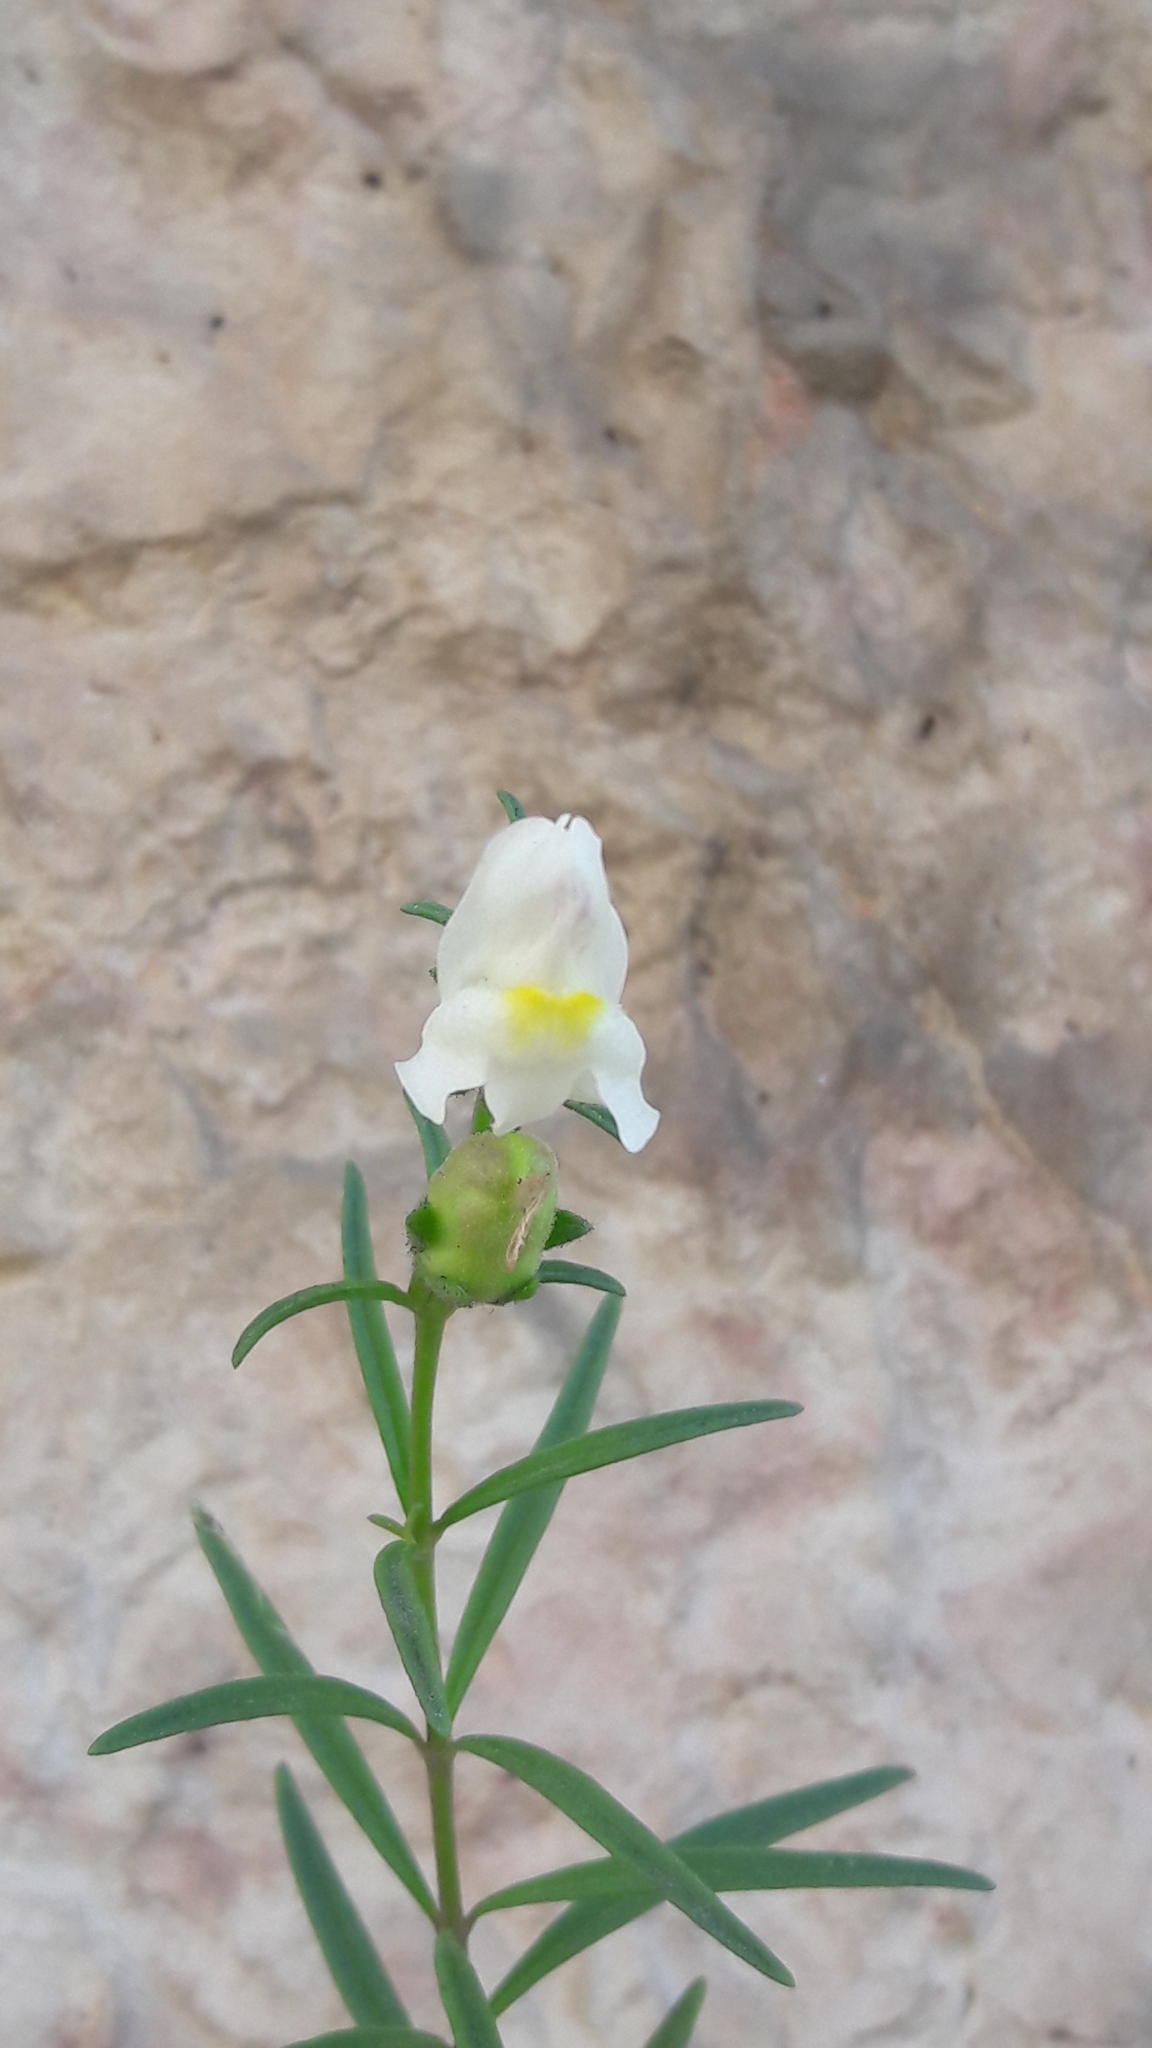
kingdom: Plantae
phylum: Tracheophyta
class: Magnoliopsida
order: Lamiales
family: Plantaginaceae
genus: Antirrhinum
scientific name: Antirrhinum siculum
